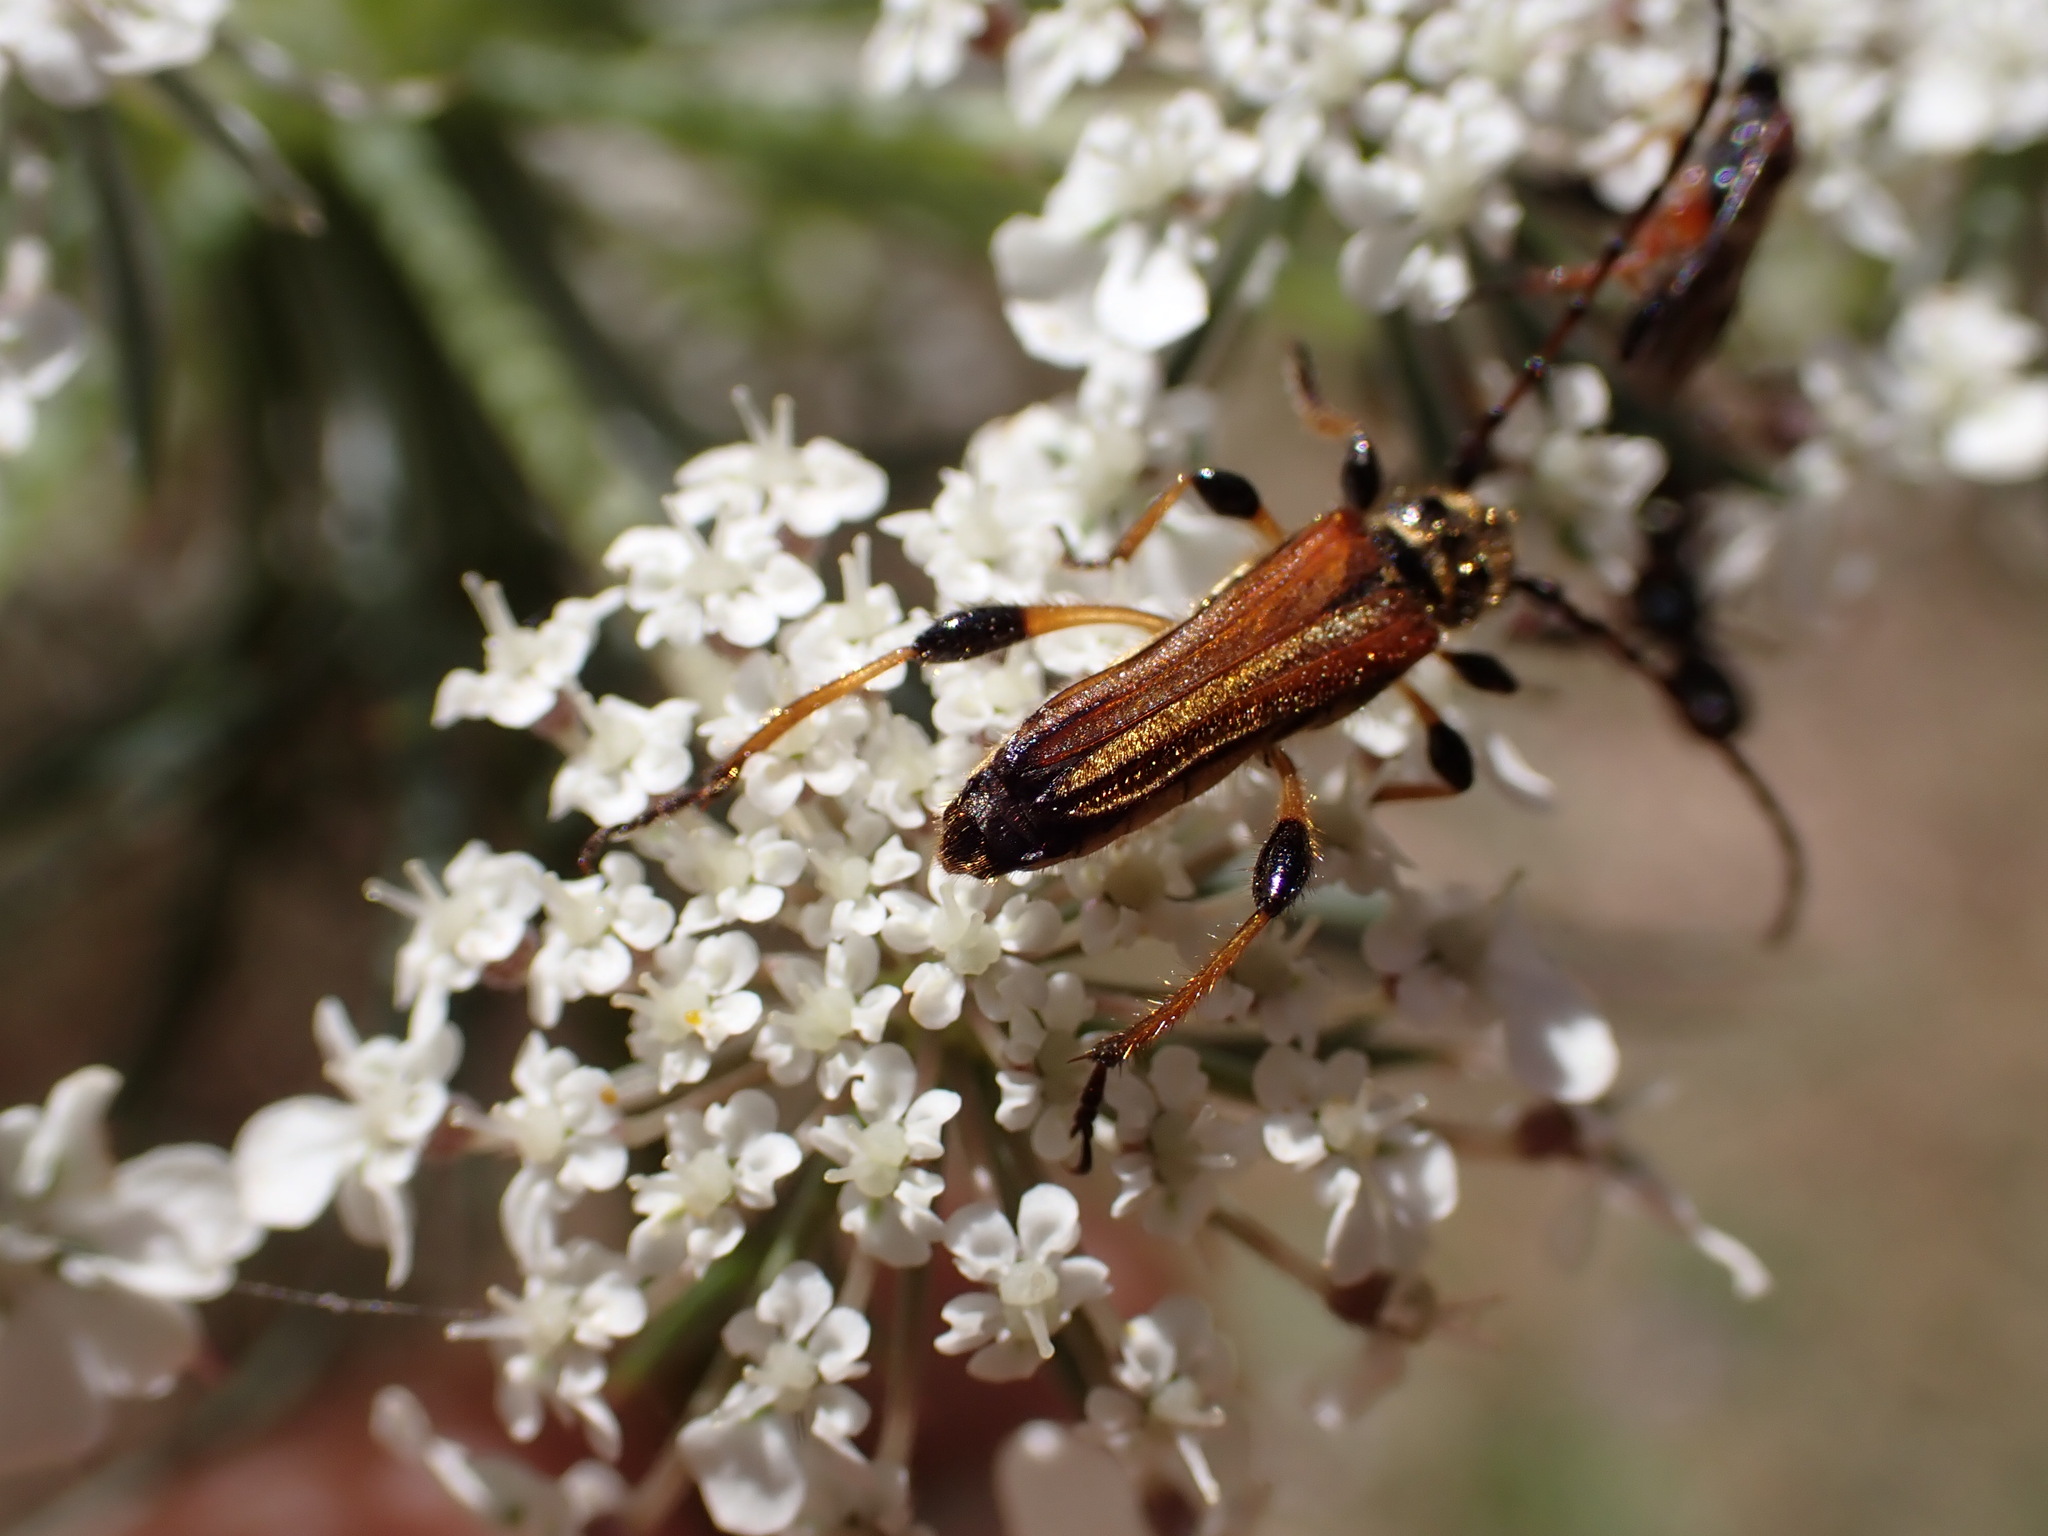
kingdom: Animalia
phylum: Arthropoda
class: Insecta
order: Coleoptera
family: Cerambycidae
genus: Stenopterus
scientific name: Stenopterus ater
